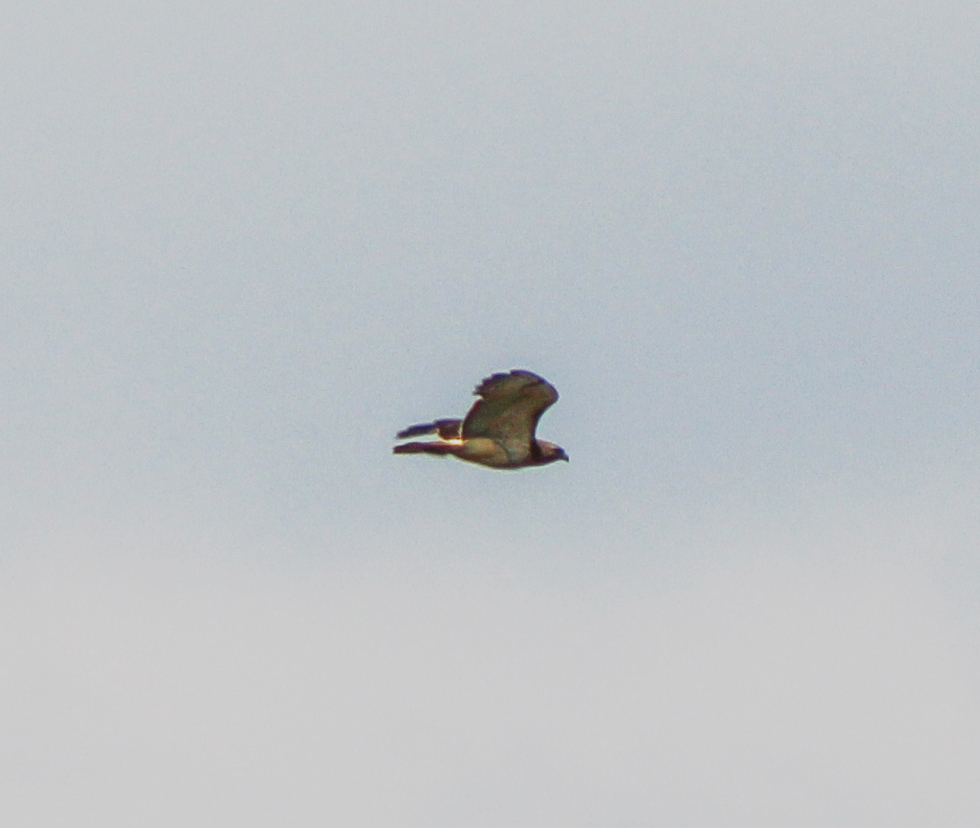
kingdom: Animalia
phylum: Chordata
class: Aves
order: Accipitriformes
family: Accipitridae
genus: Buteo
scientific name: Buteo jamaicensis
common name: Red-tailed hawk
